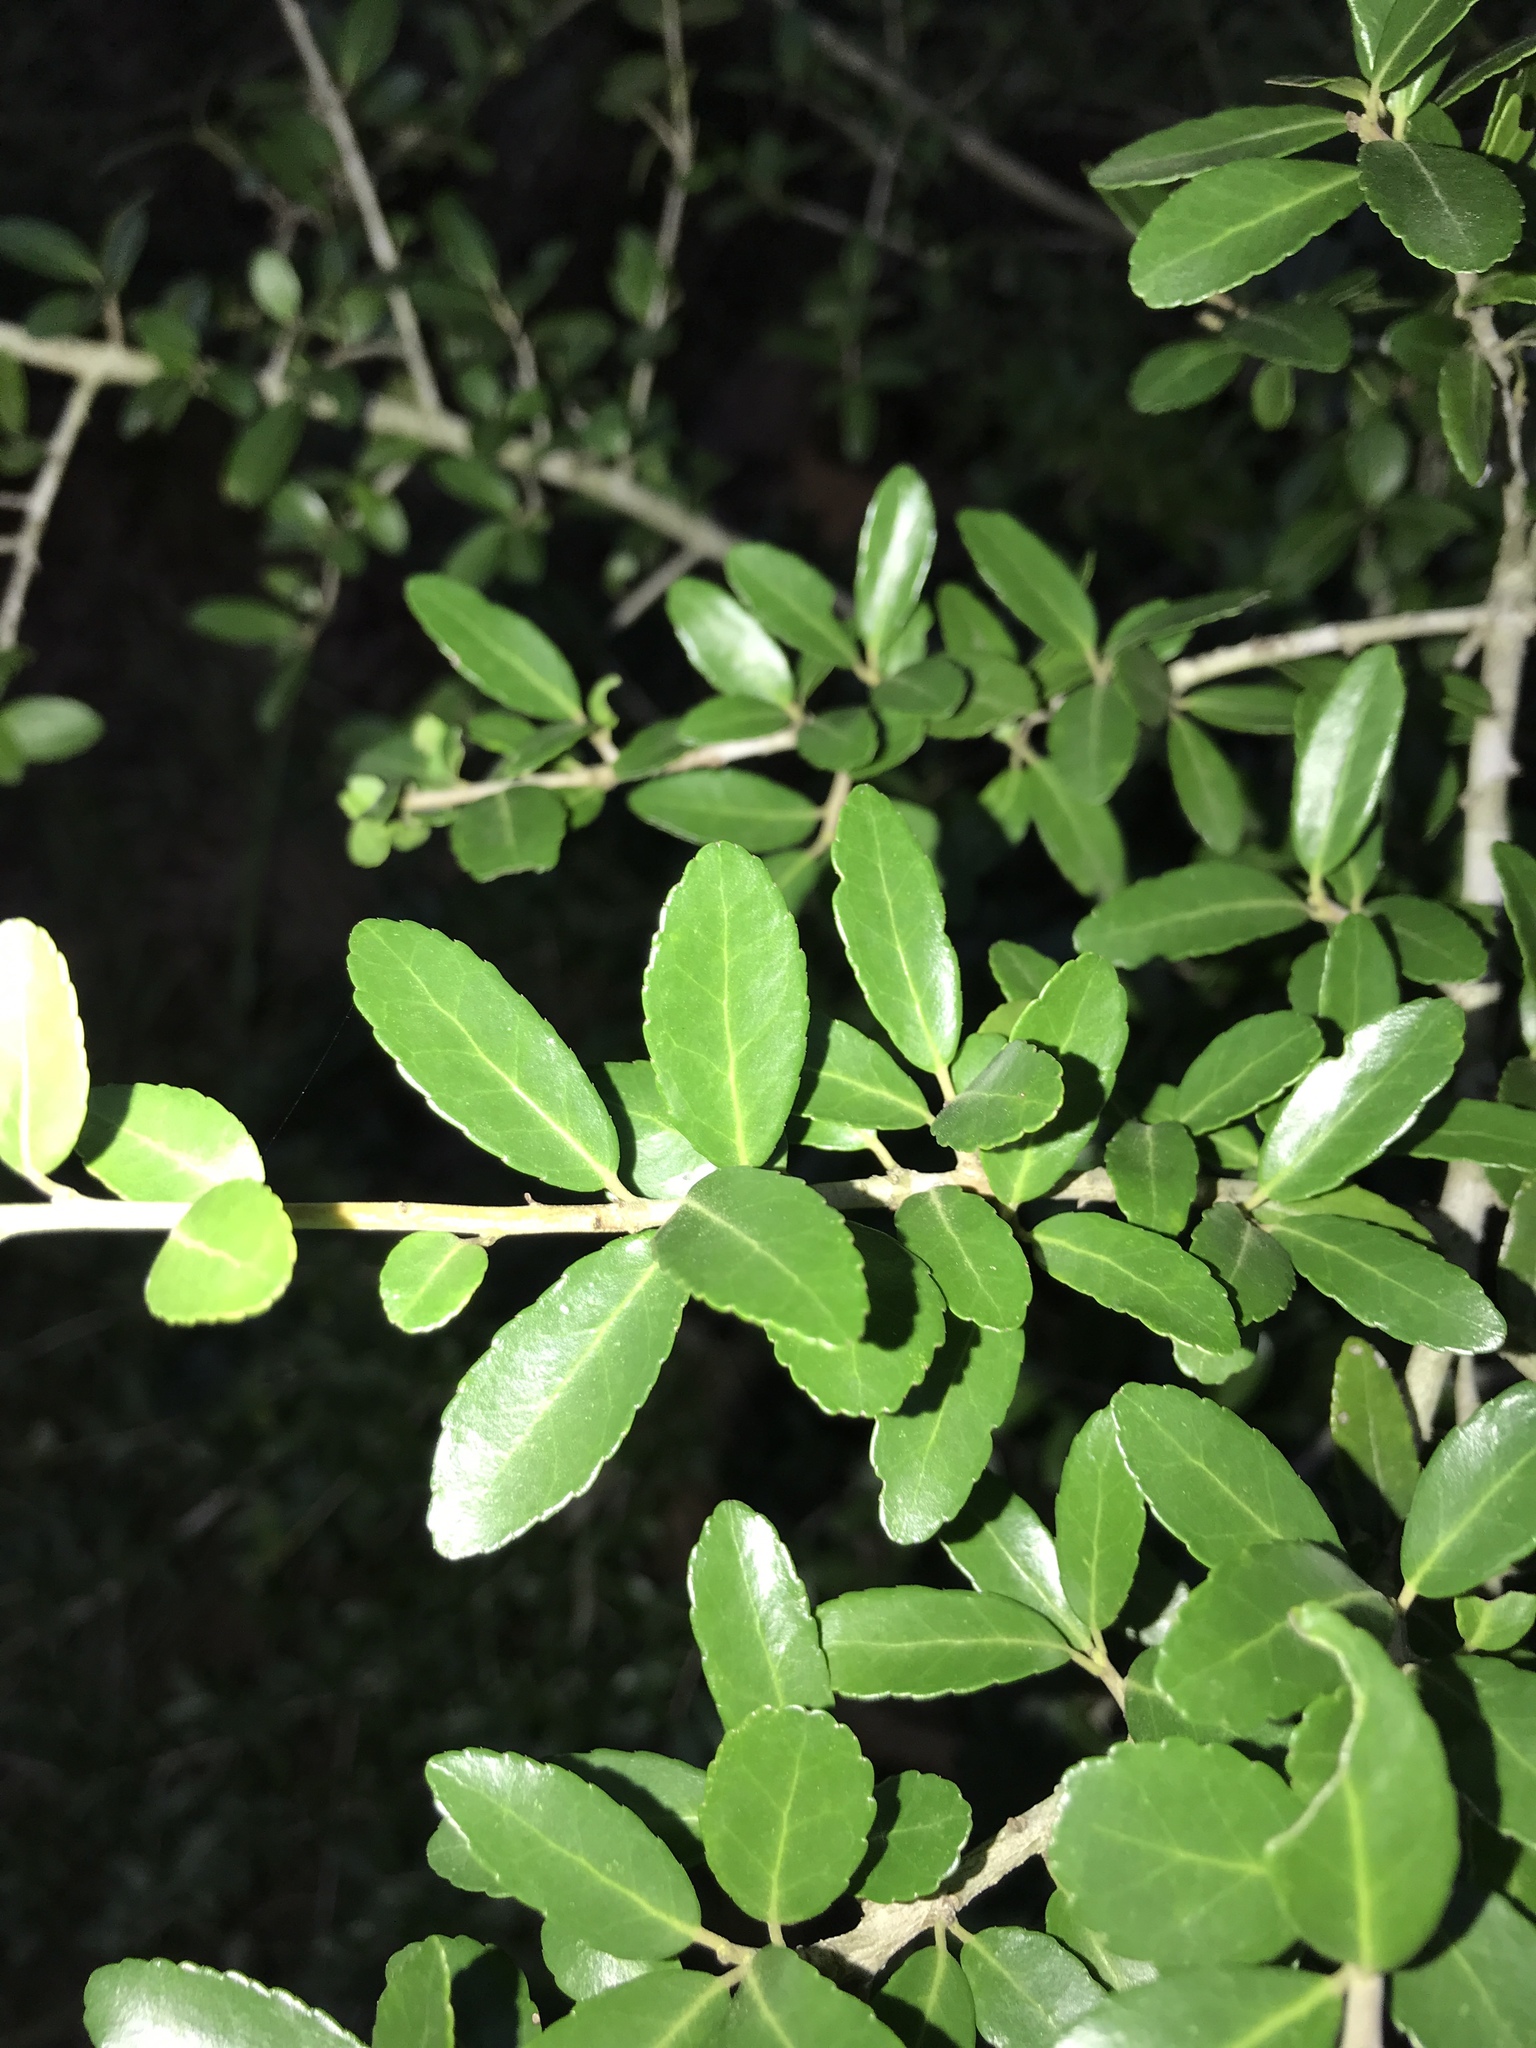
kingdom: Plantae
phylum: Tracheophyta
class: Magnoliopsida
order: Aquifoliales
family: Aquifoliaceae
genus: Ilex
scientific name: Ilex vomitoria
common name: Yaupon holly
